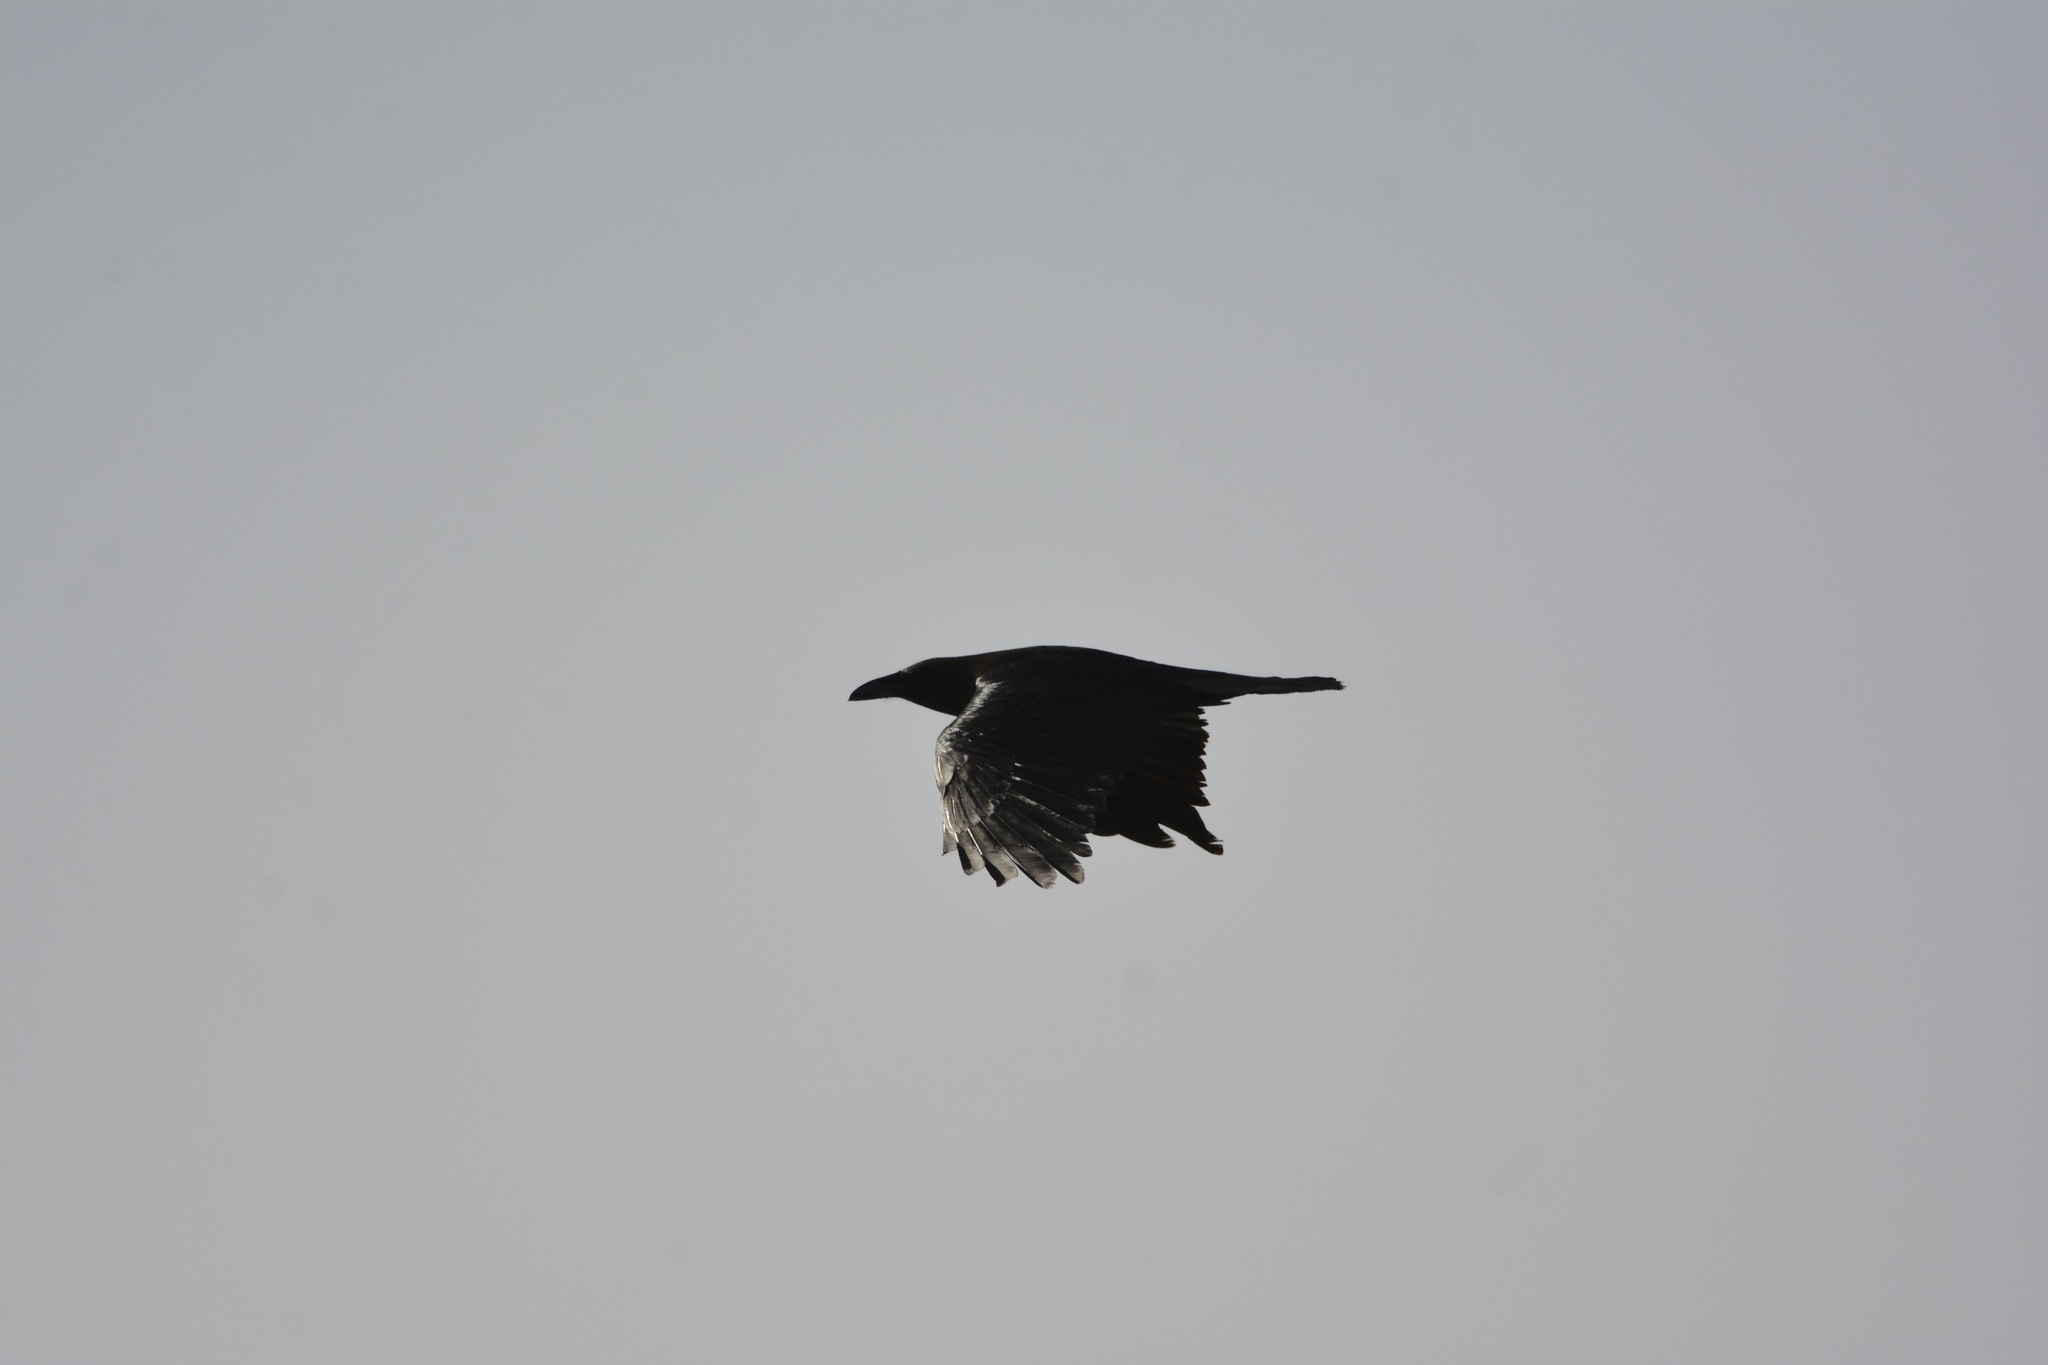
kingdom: Animalia
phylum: Chordata
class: Aves
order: Passeriformes
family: Corvidae
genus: Corvus
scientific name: Corvus ruficollis
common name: Brown-necked raven
